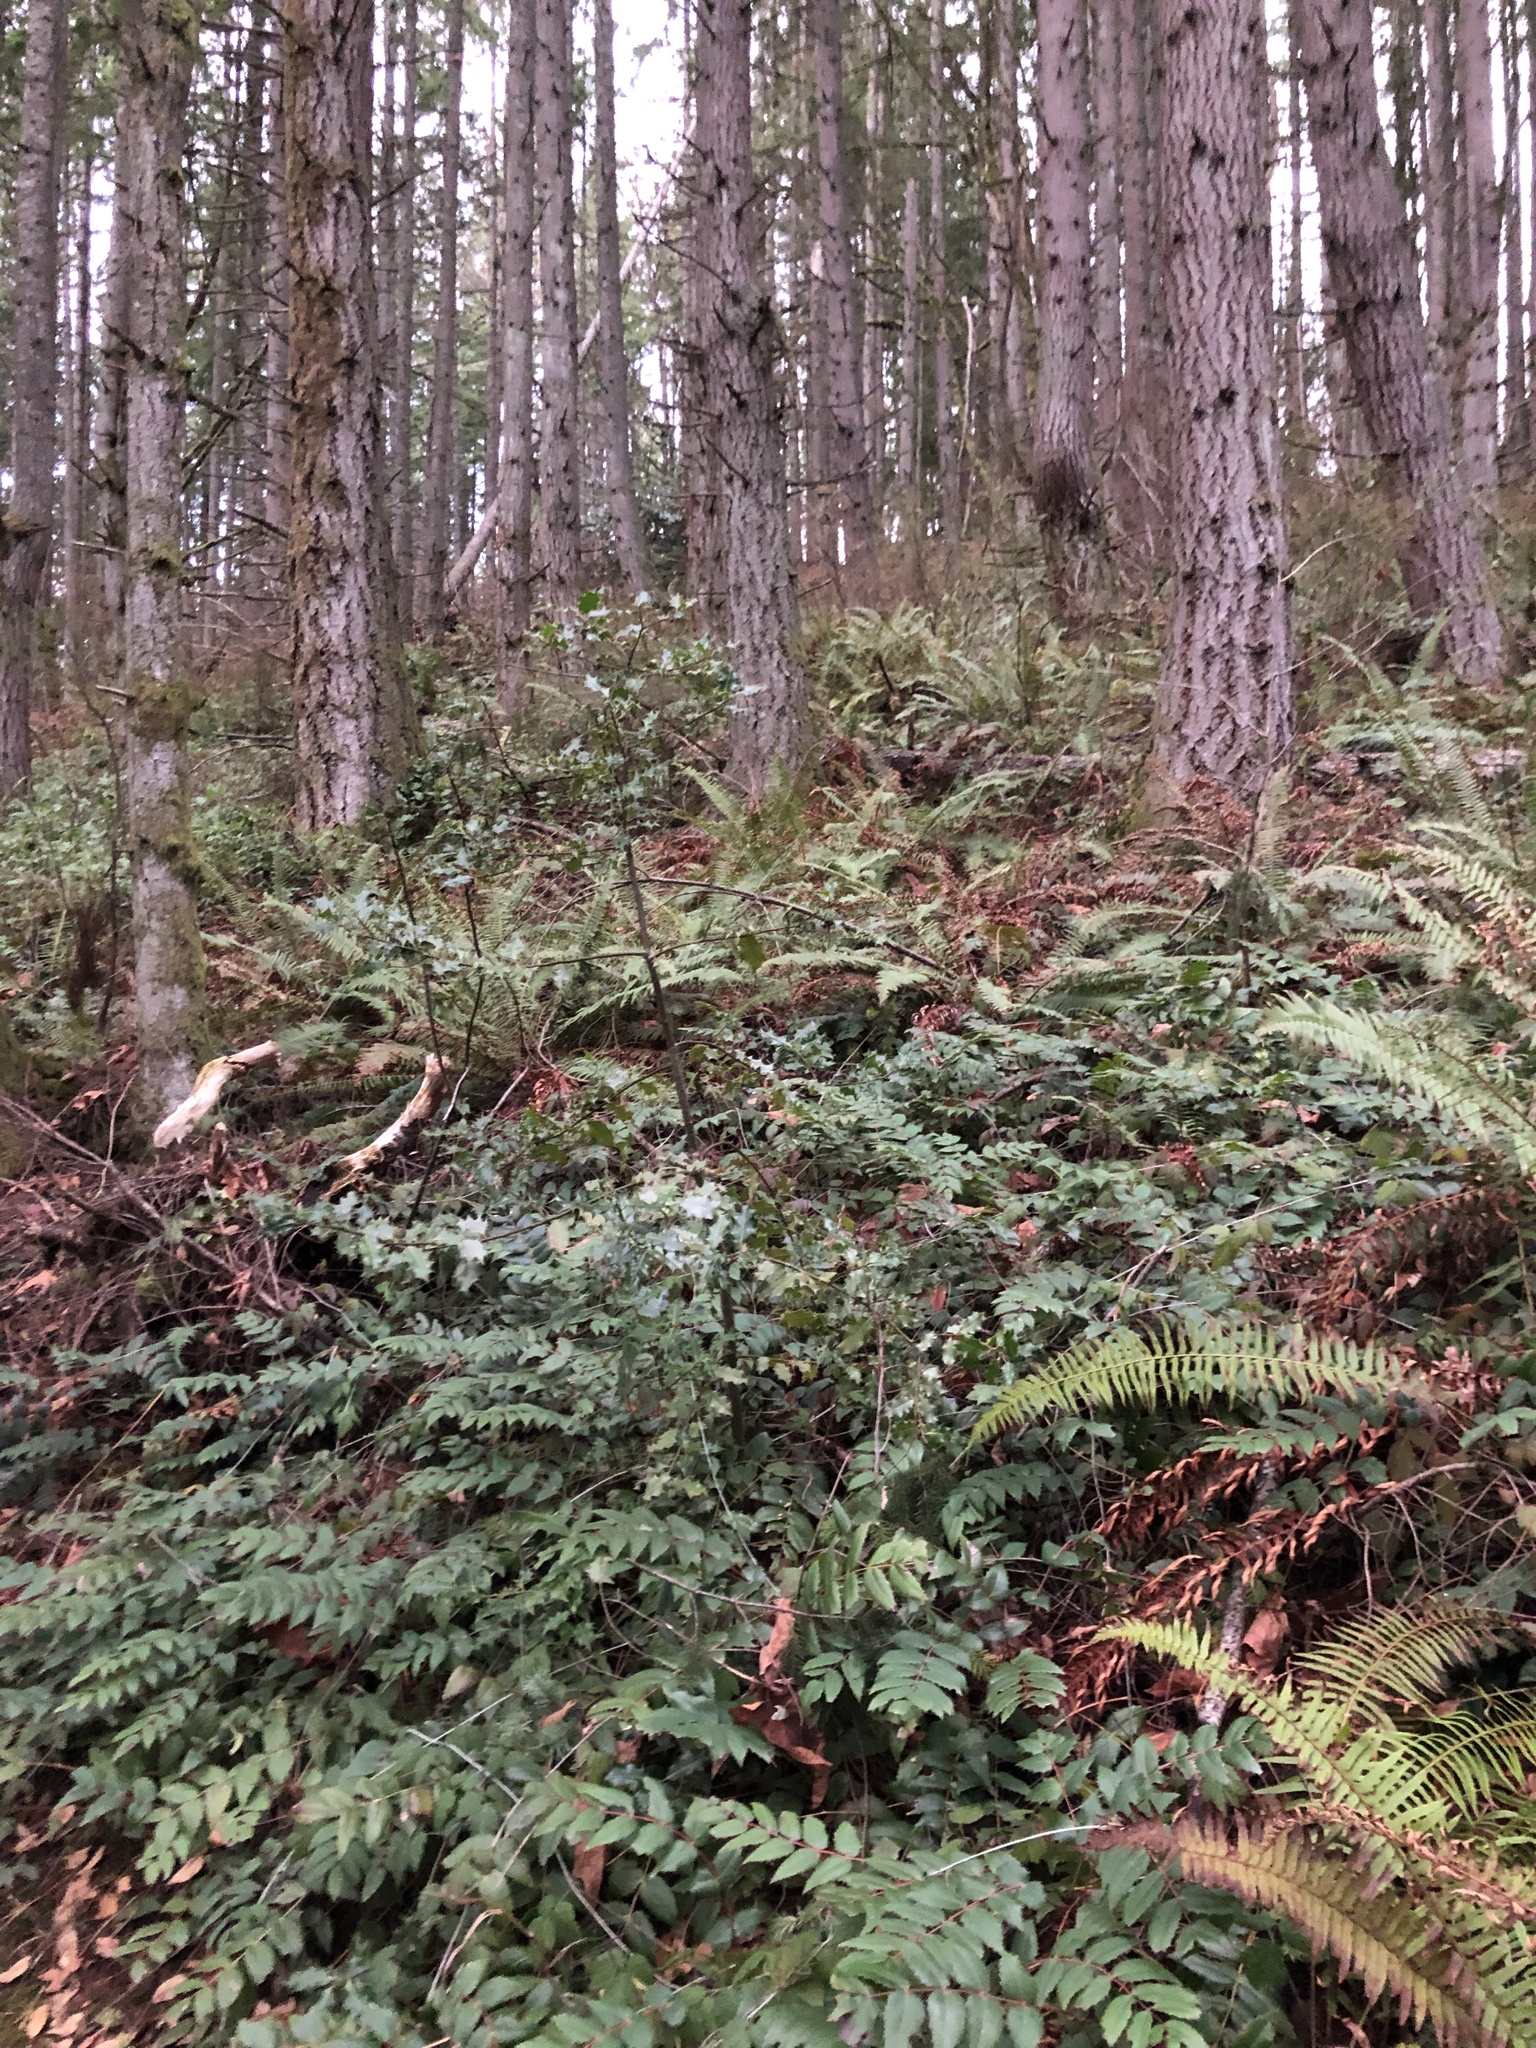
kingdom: Plantae
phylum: Tracheophyta
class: Magnoliopsida
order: Aquifoliales
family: Aquifoliaceae
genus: Ilex
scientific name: Ilex aquifolium
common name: English holly
